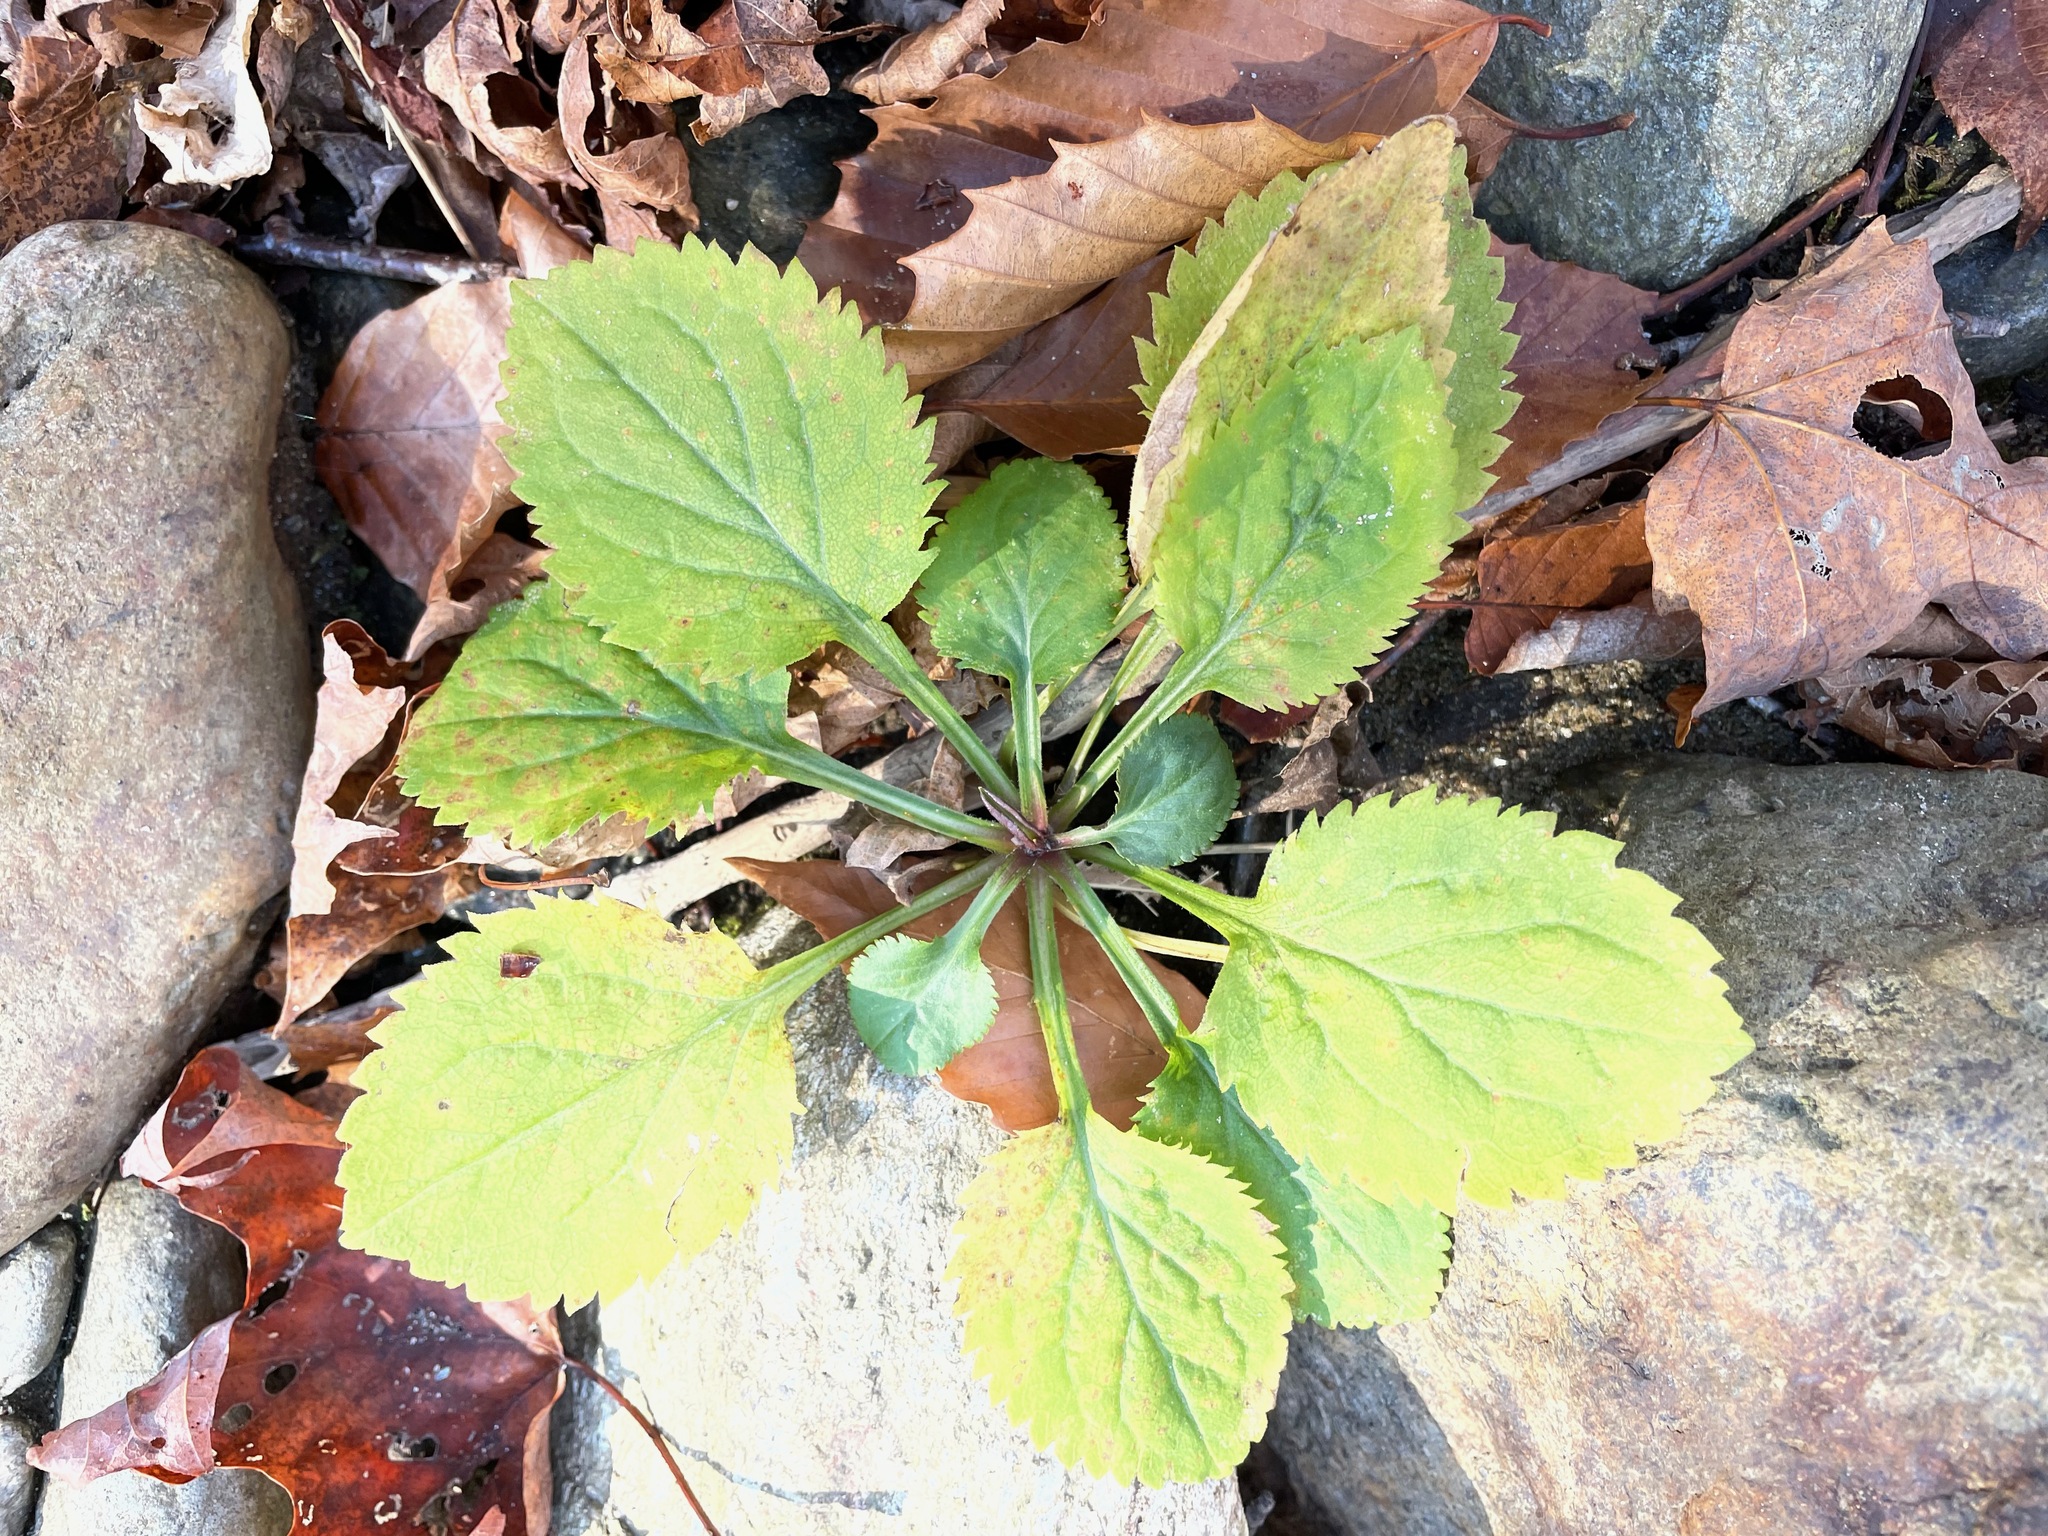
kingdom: Plantae
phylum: Tracheophyta
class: Magnoliopsida
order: Asterales
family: Asteraceae
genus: Solidago
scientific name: Solidago flexicaulis
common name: Zig-zag goldenrod
